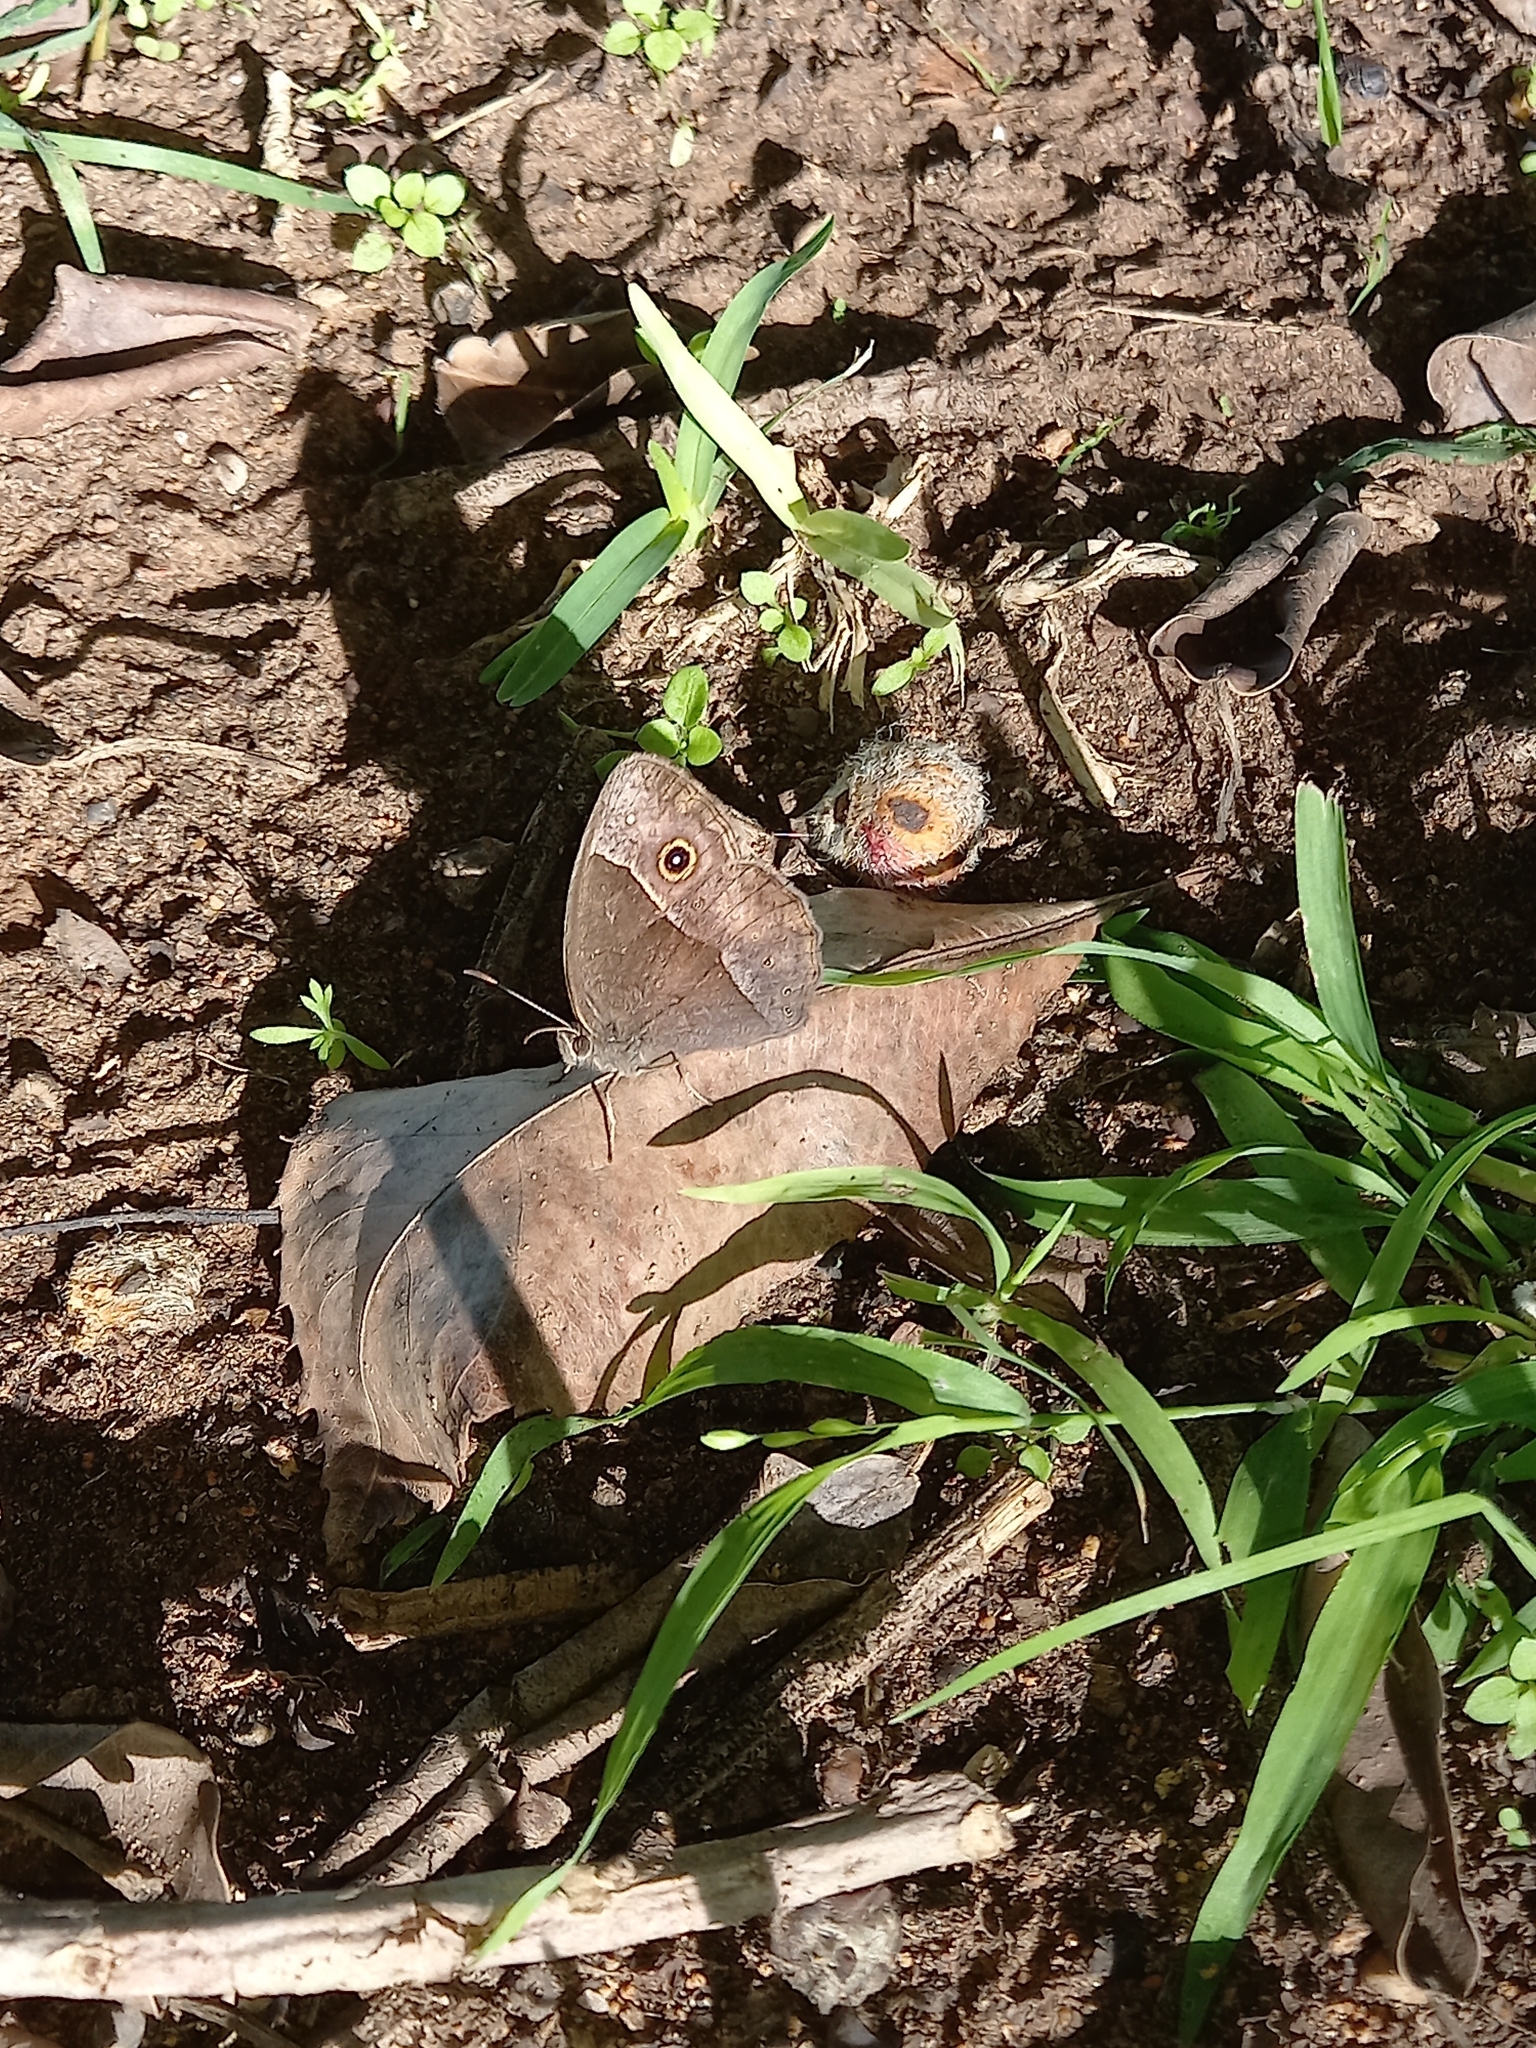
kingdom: Animalia
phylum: Arthropoda
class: Insecta
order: Lepidoptera
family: Nymphalidae
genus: Mycalesis
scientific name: Mycalesis rhacotis
